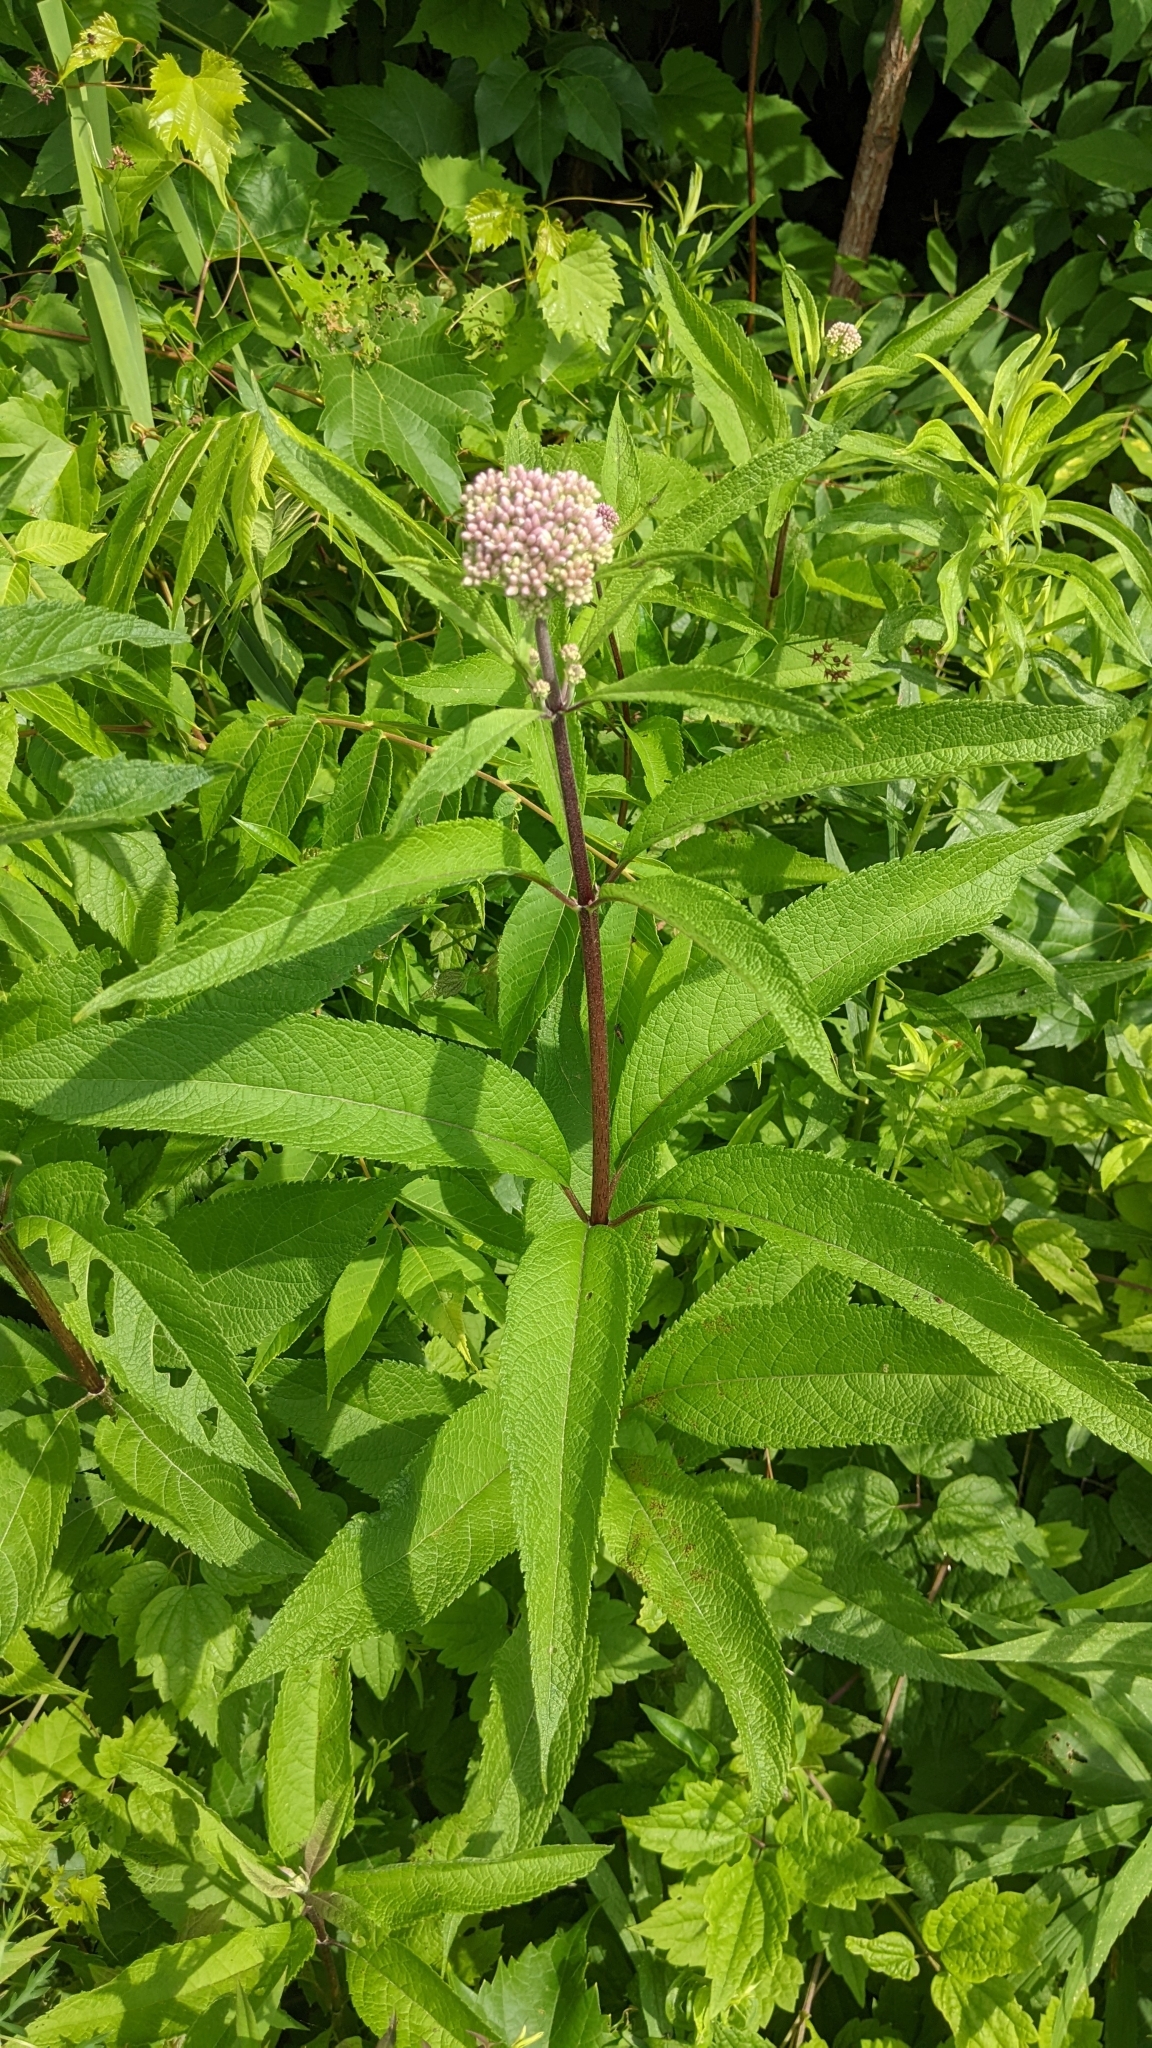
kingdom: Plantae
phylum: Tracheophyta
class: Magnoliopsida
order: Asterales
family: Asteraceae
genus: Eutrochium
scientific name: Eutrochium maculatum
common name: Spotted joe pye weed
